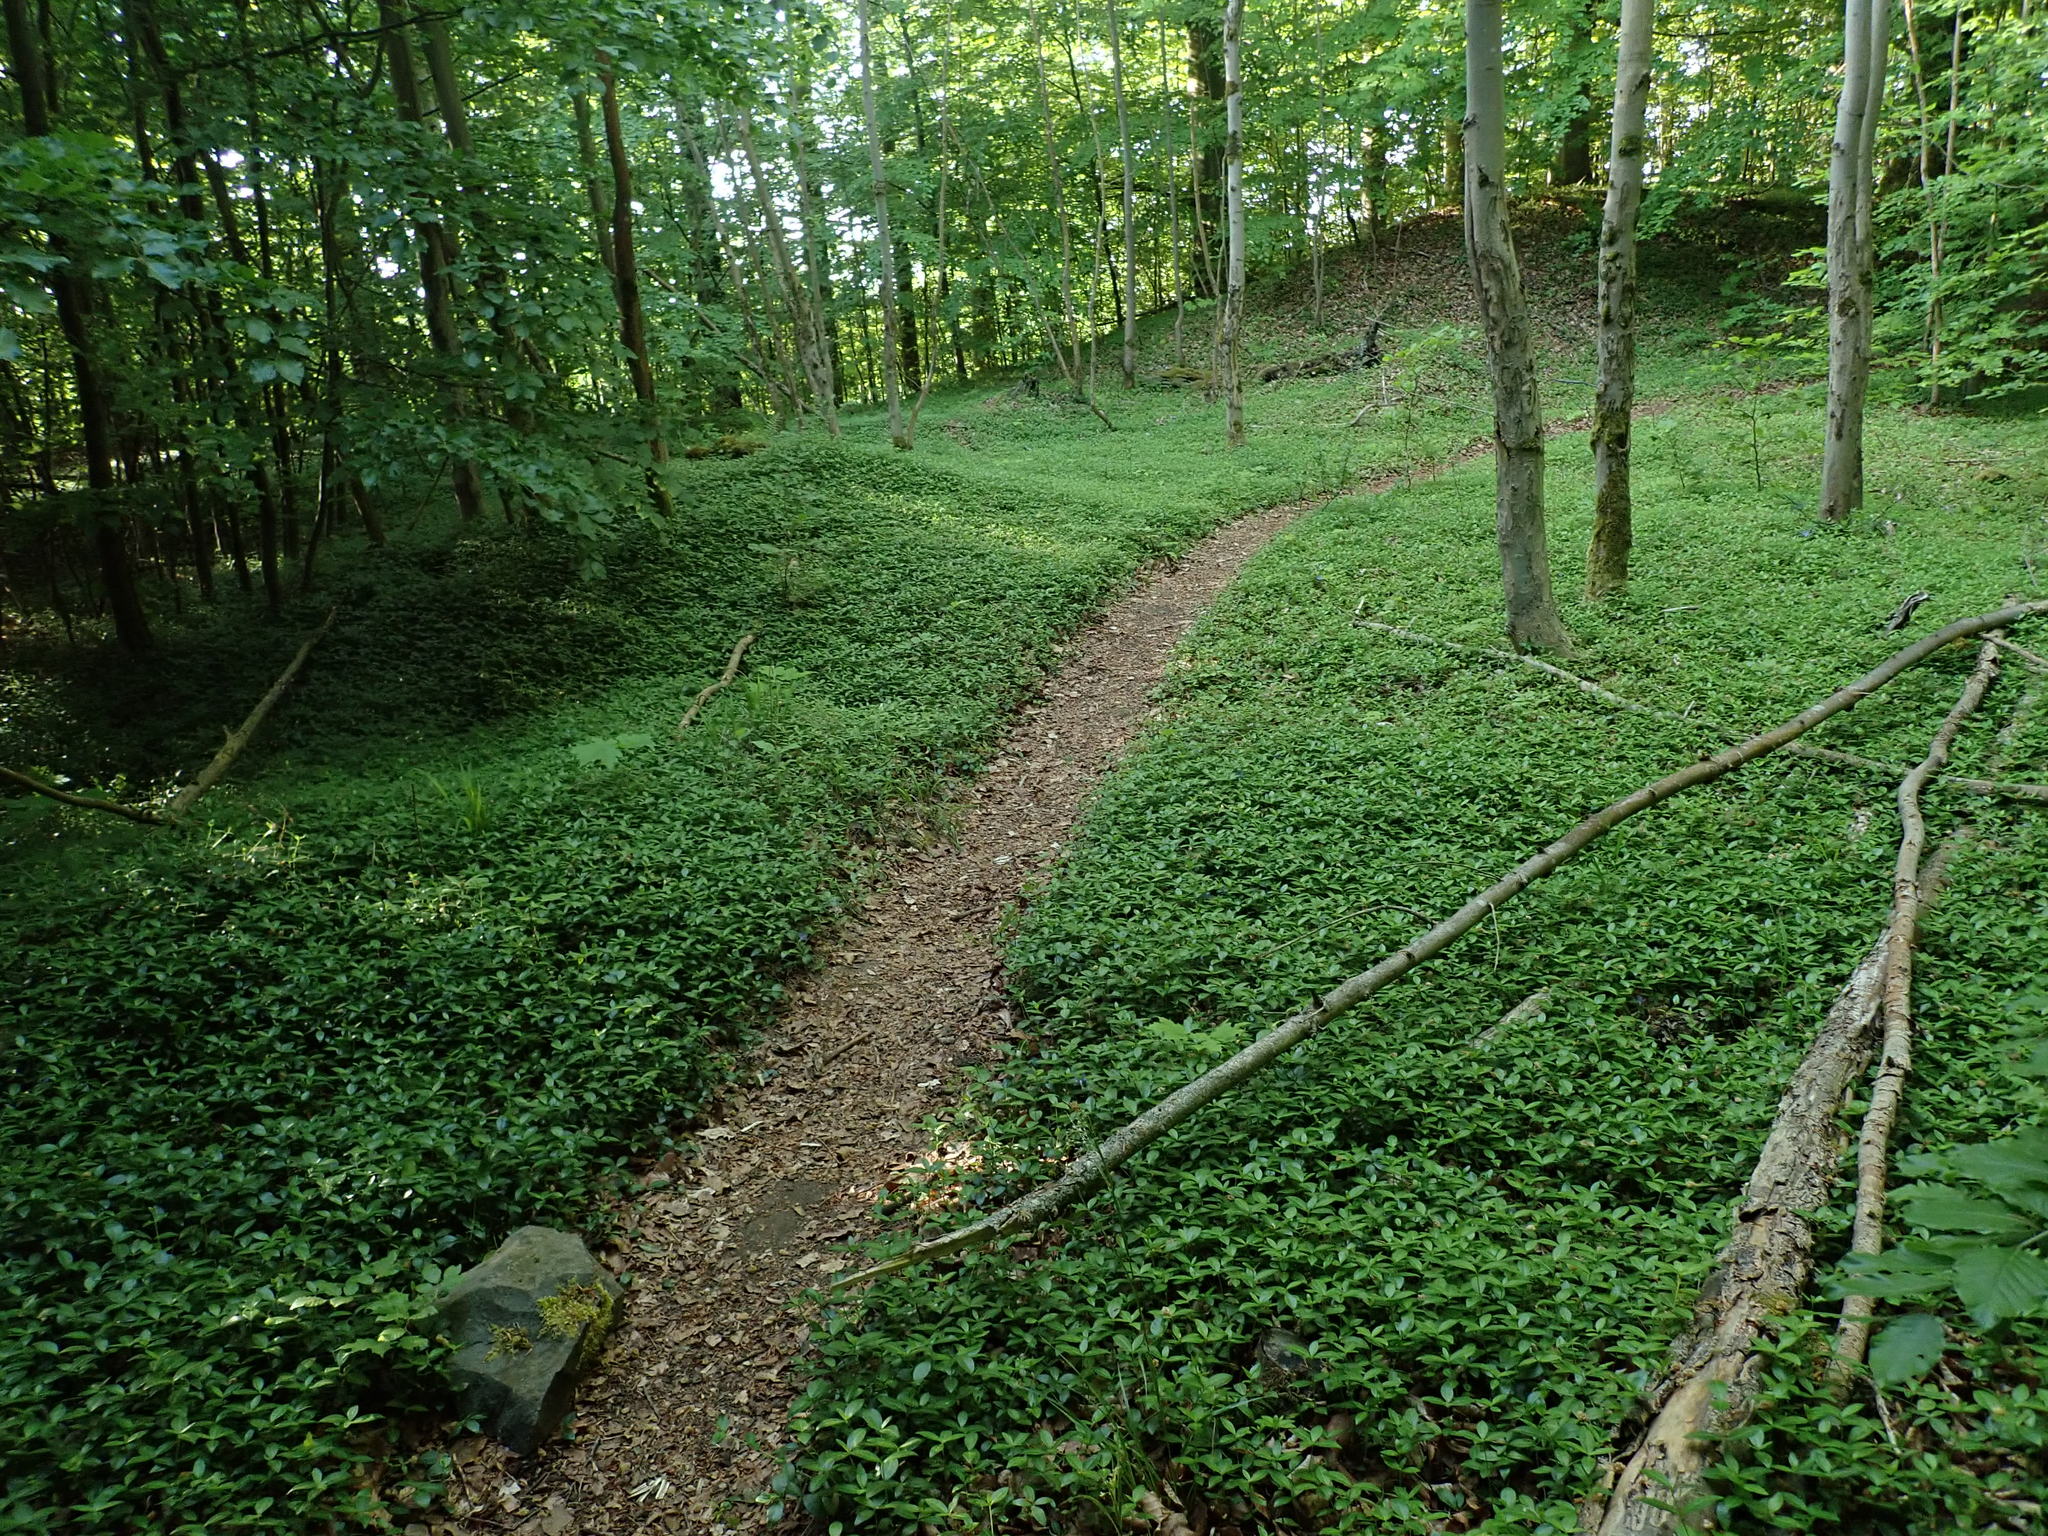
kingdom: Plantae
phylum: Tracheophyta
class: Magnoliopsida
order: Gentianales
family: Apocynaceae
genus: Vinca
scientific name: Vinca minor
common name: Lesser periwinkle
